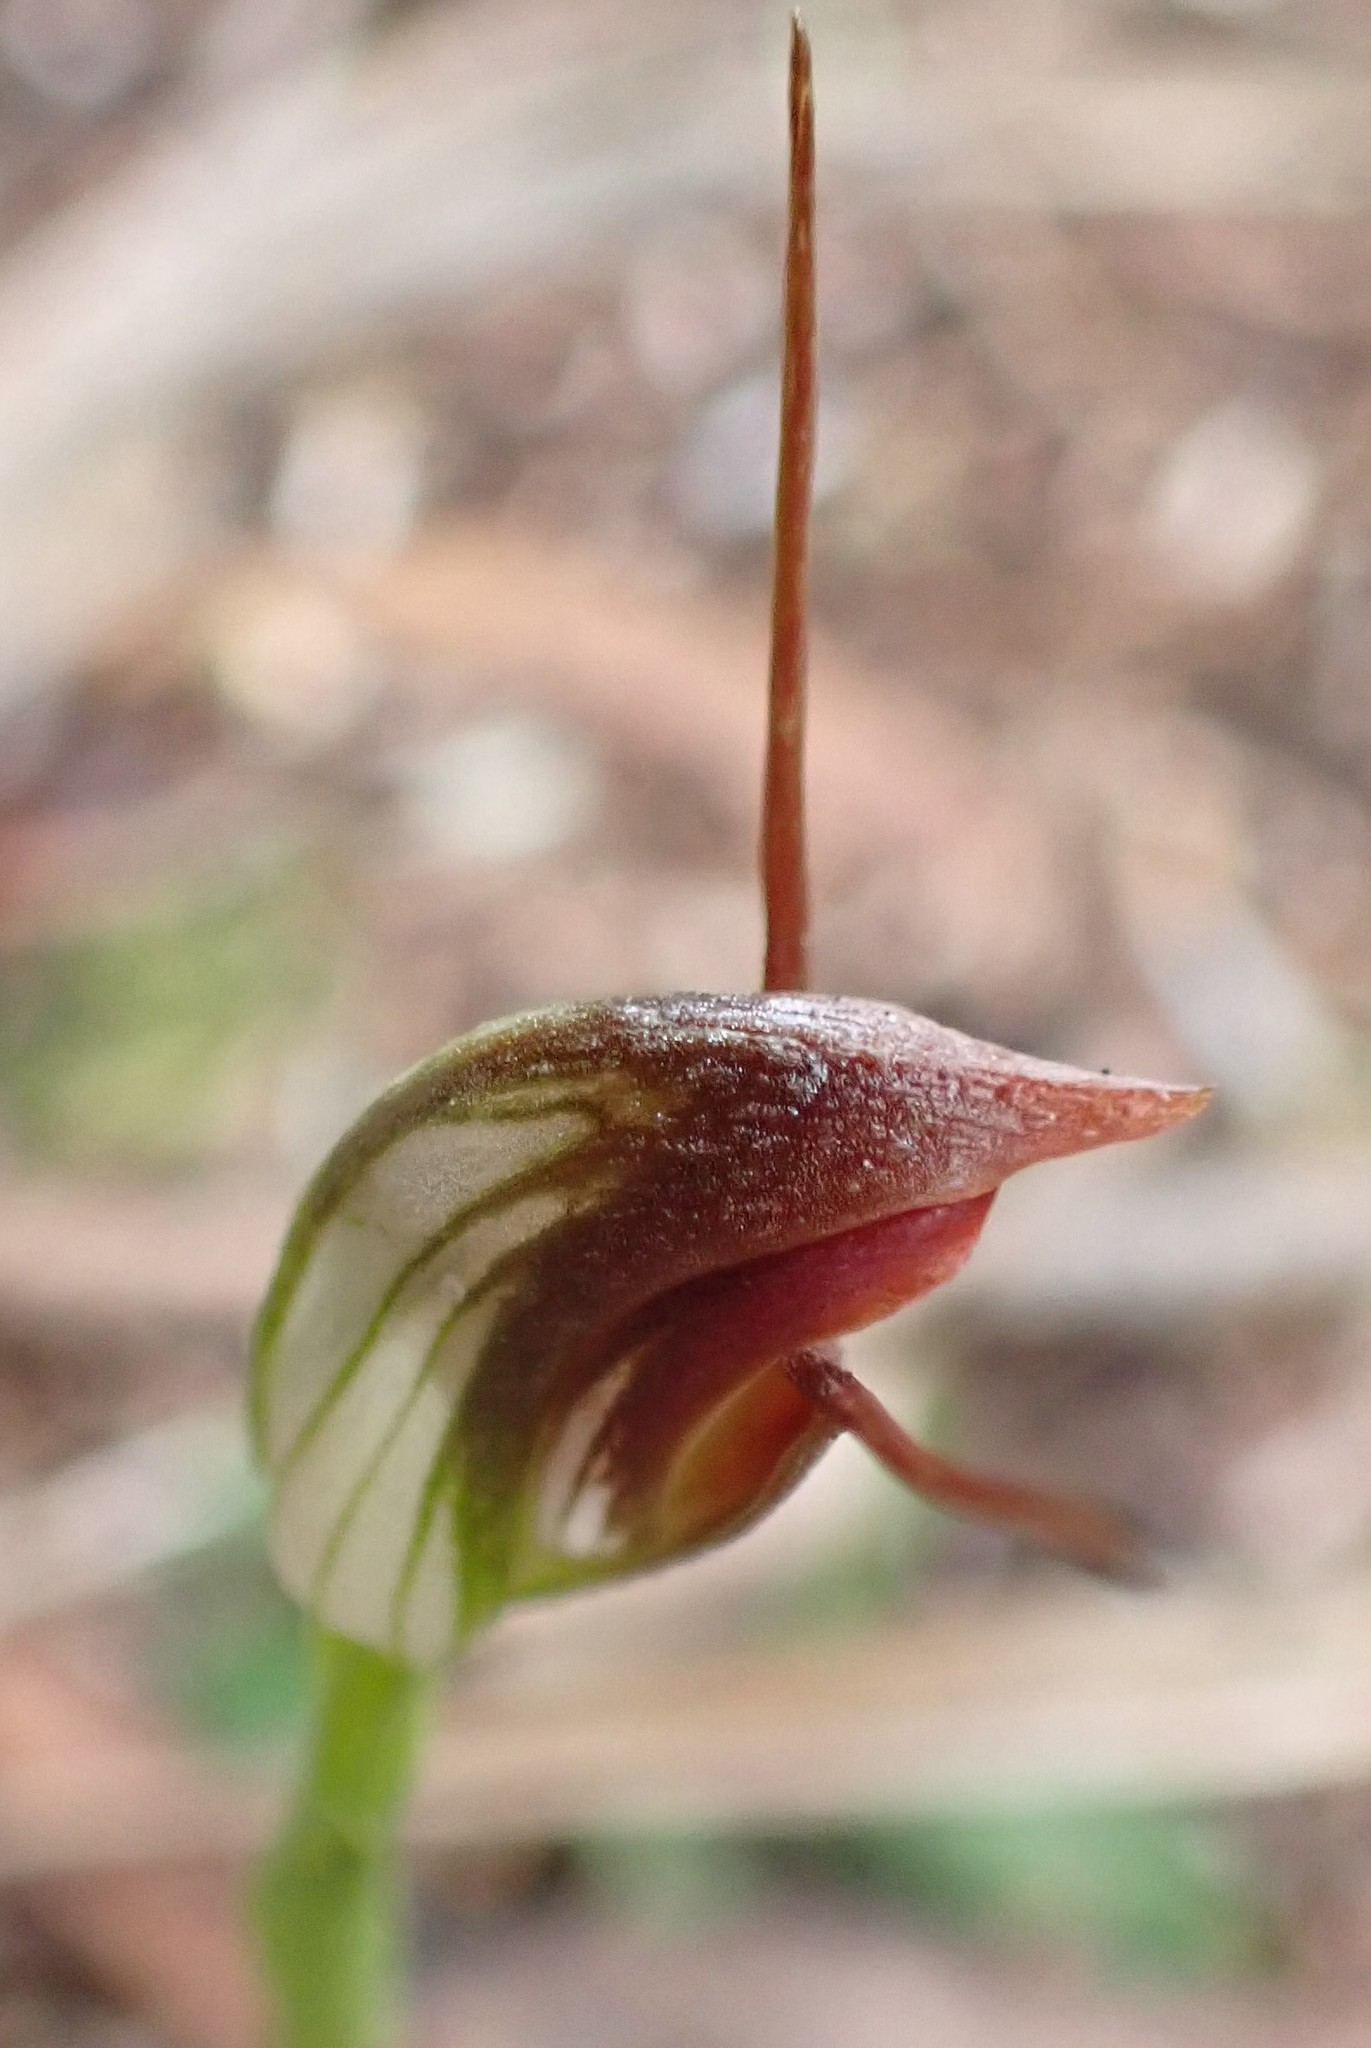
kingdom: Plantae
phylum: Tracheophyta
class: Liliopsida
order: Asparagales
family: Orchidaceae
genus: Pterostylis
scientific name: Pterostylis pedunculata
